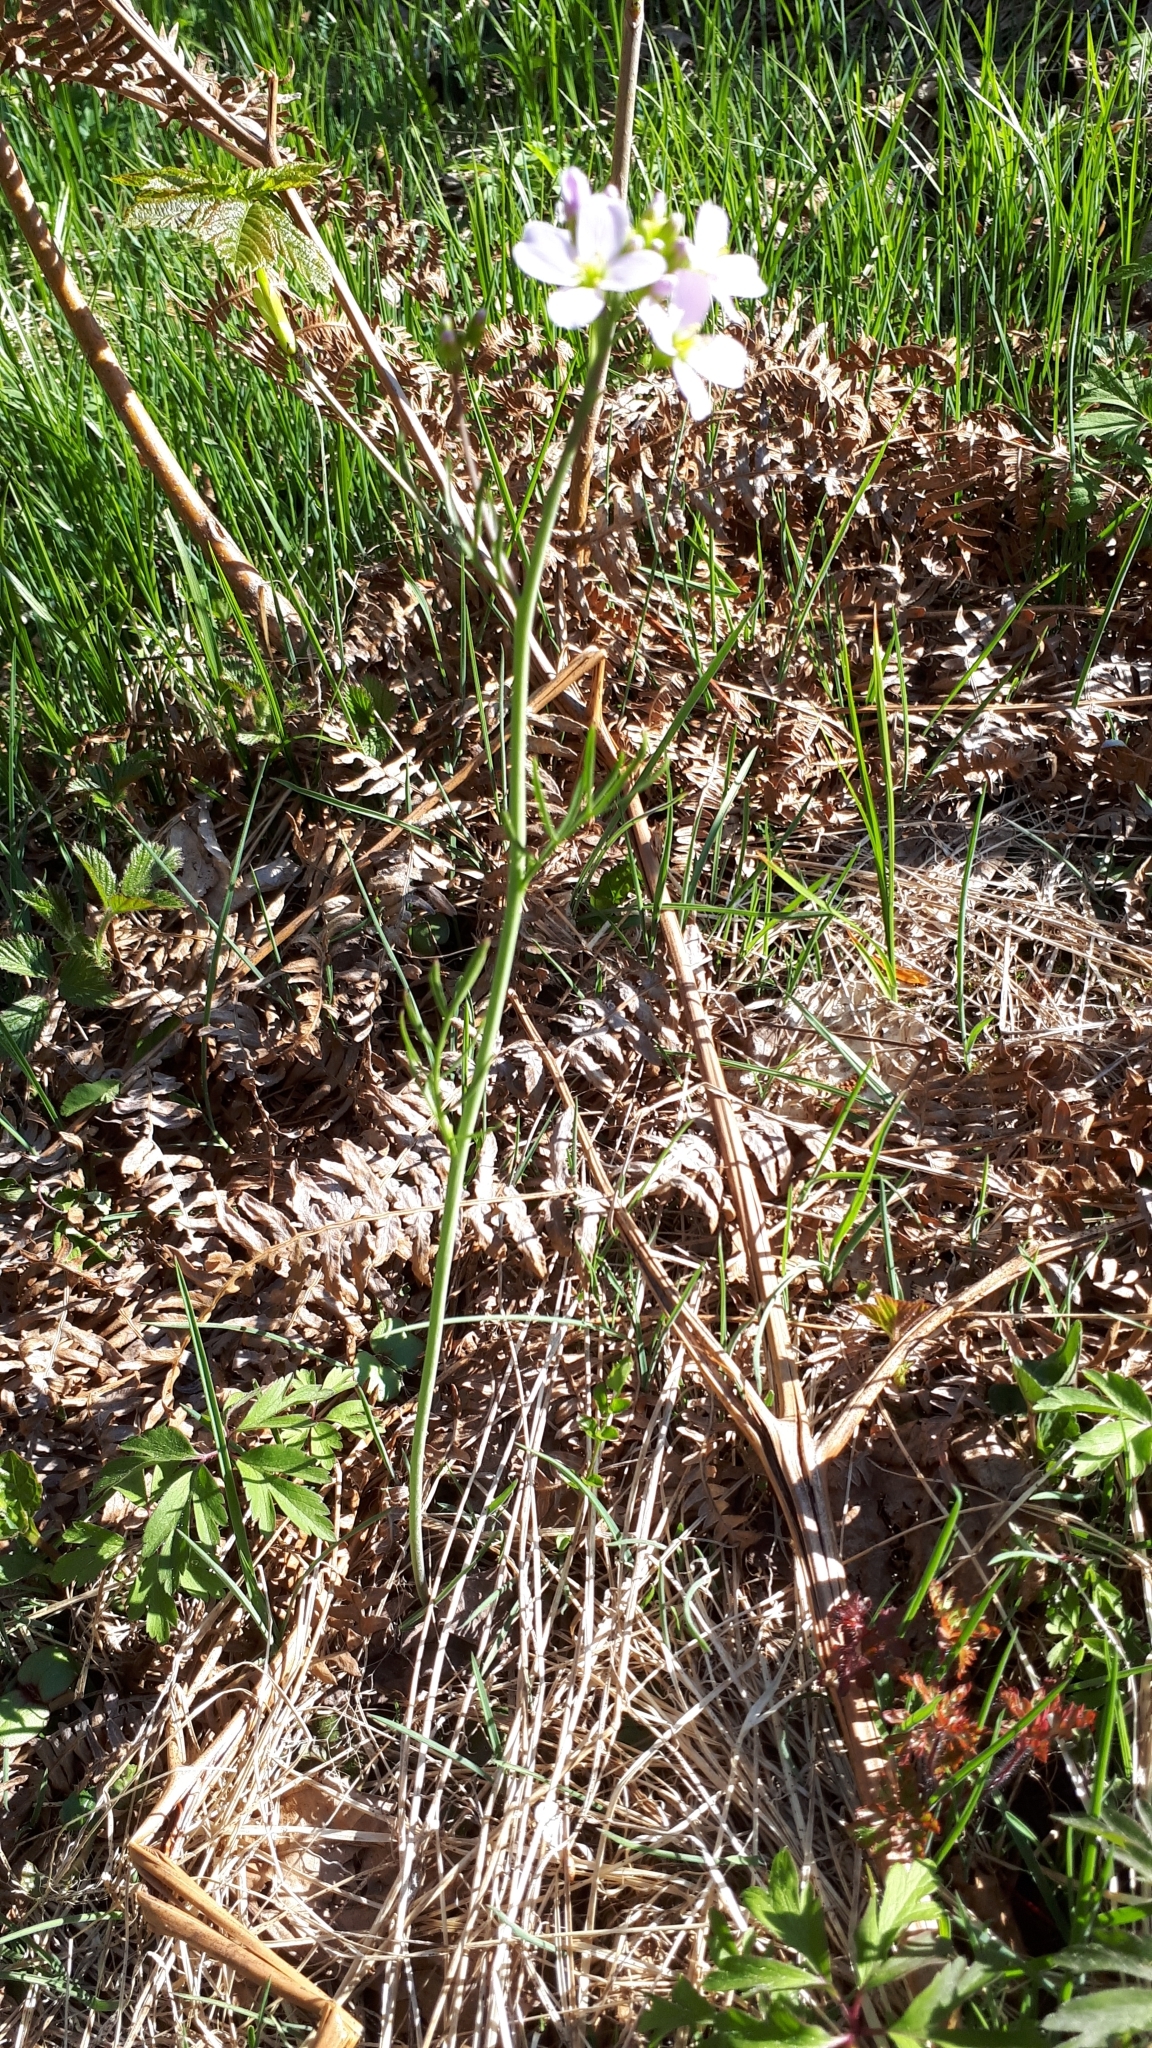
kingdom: Plantae
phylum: Tracheophyta
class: Magnoliopsida
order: Brassicales
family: Brassicaceae
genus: Cardamine
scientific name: Cardamine pratensis
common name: Cuckoo flower
